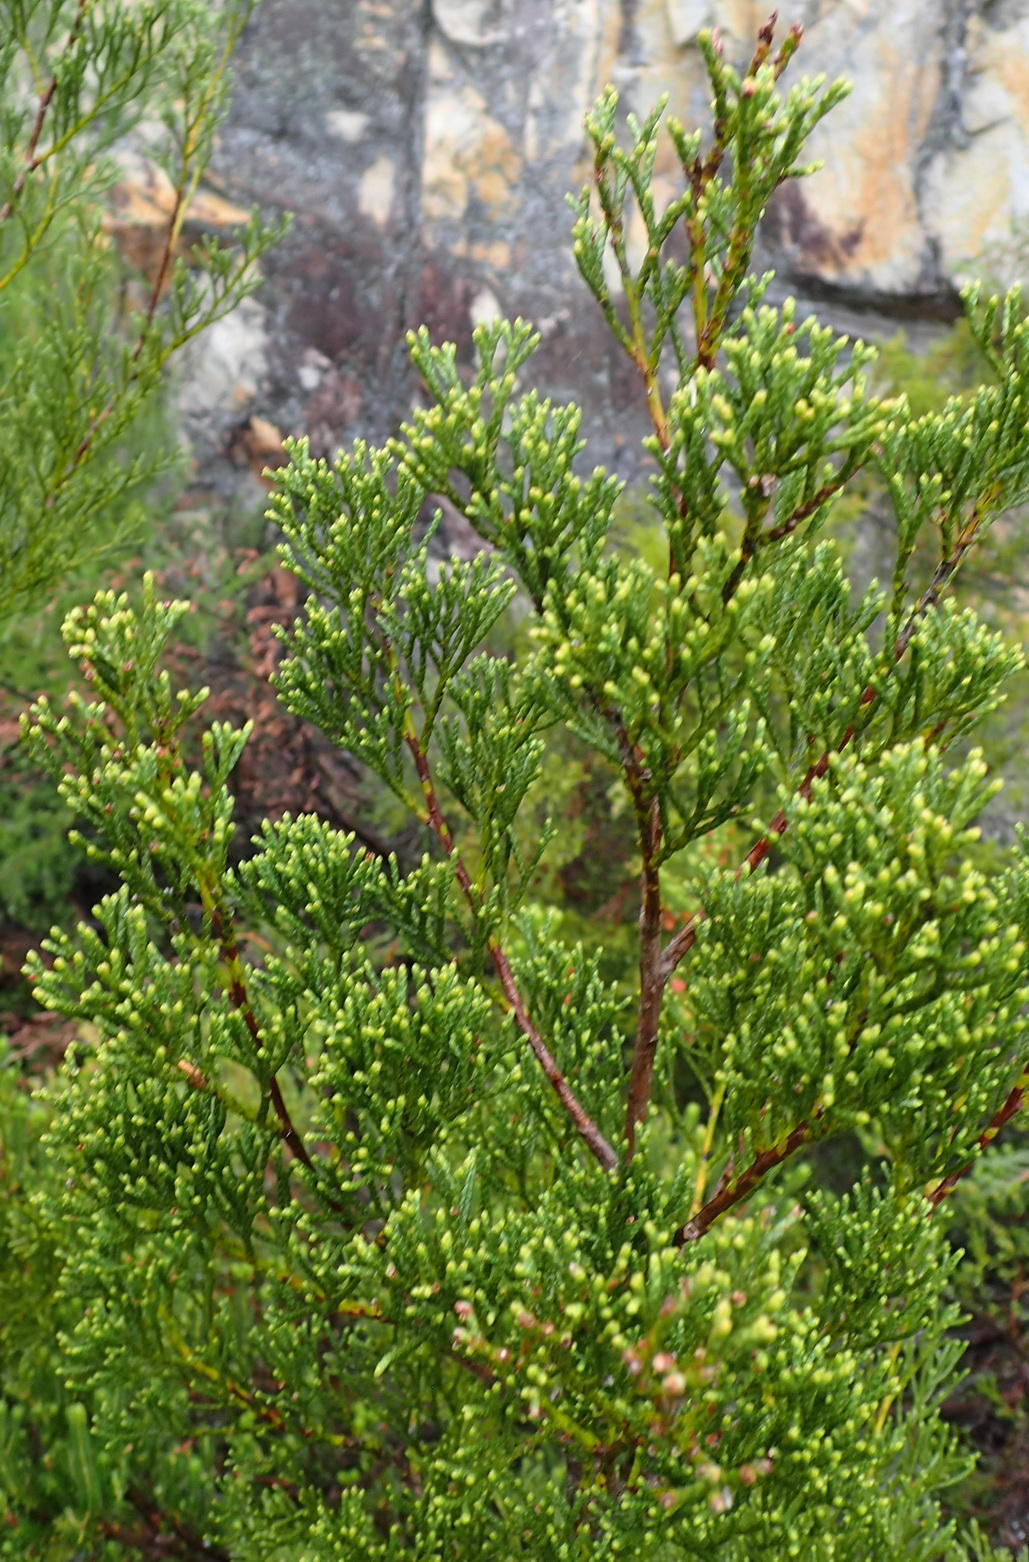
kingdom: Plantae
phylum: Tracheophyta
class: Pinopsida
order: Pinales
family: Cupressaceae
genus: Widdringtonia
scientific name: Widdringtonia nodiflora
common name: Cape cypress
